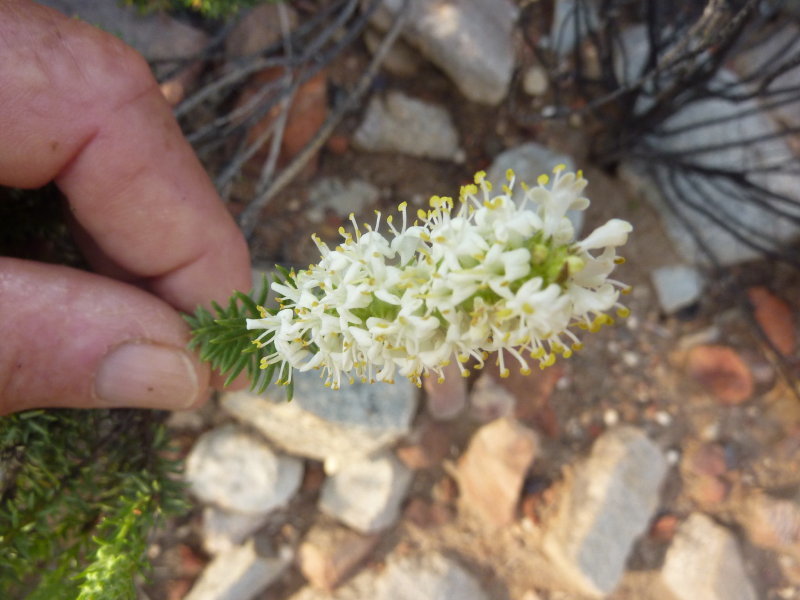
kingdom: Plantae
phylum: Tracheophyta
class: Magnoliopsida
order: Lamiales
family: Scrophulariaceae
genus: Selago
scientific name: Selago eckloniana
